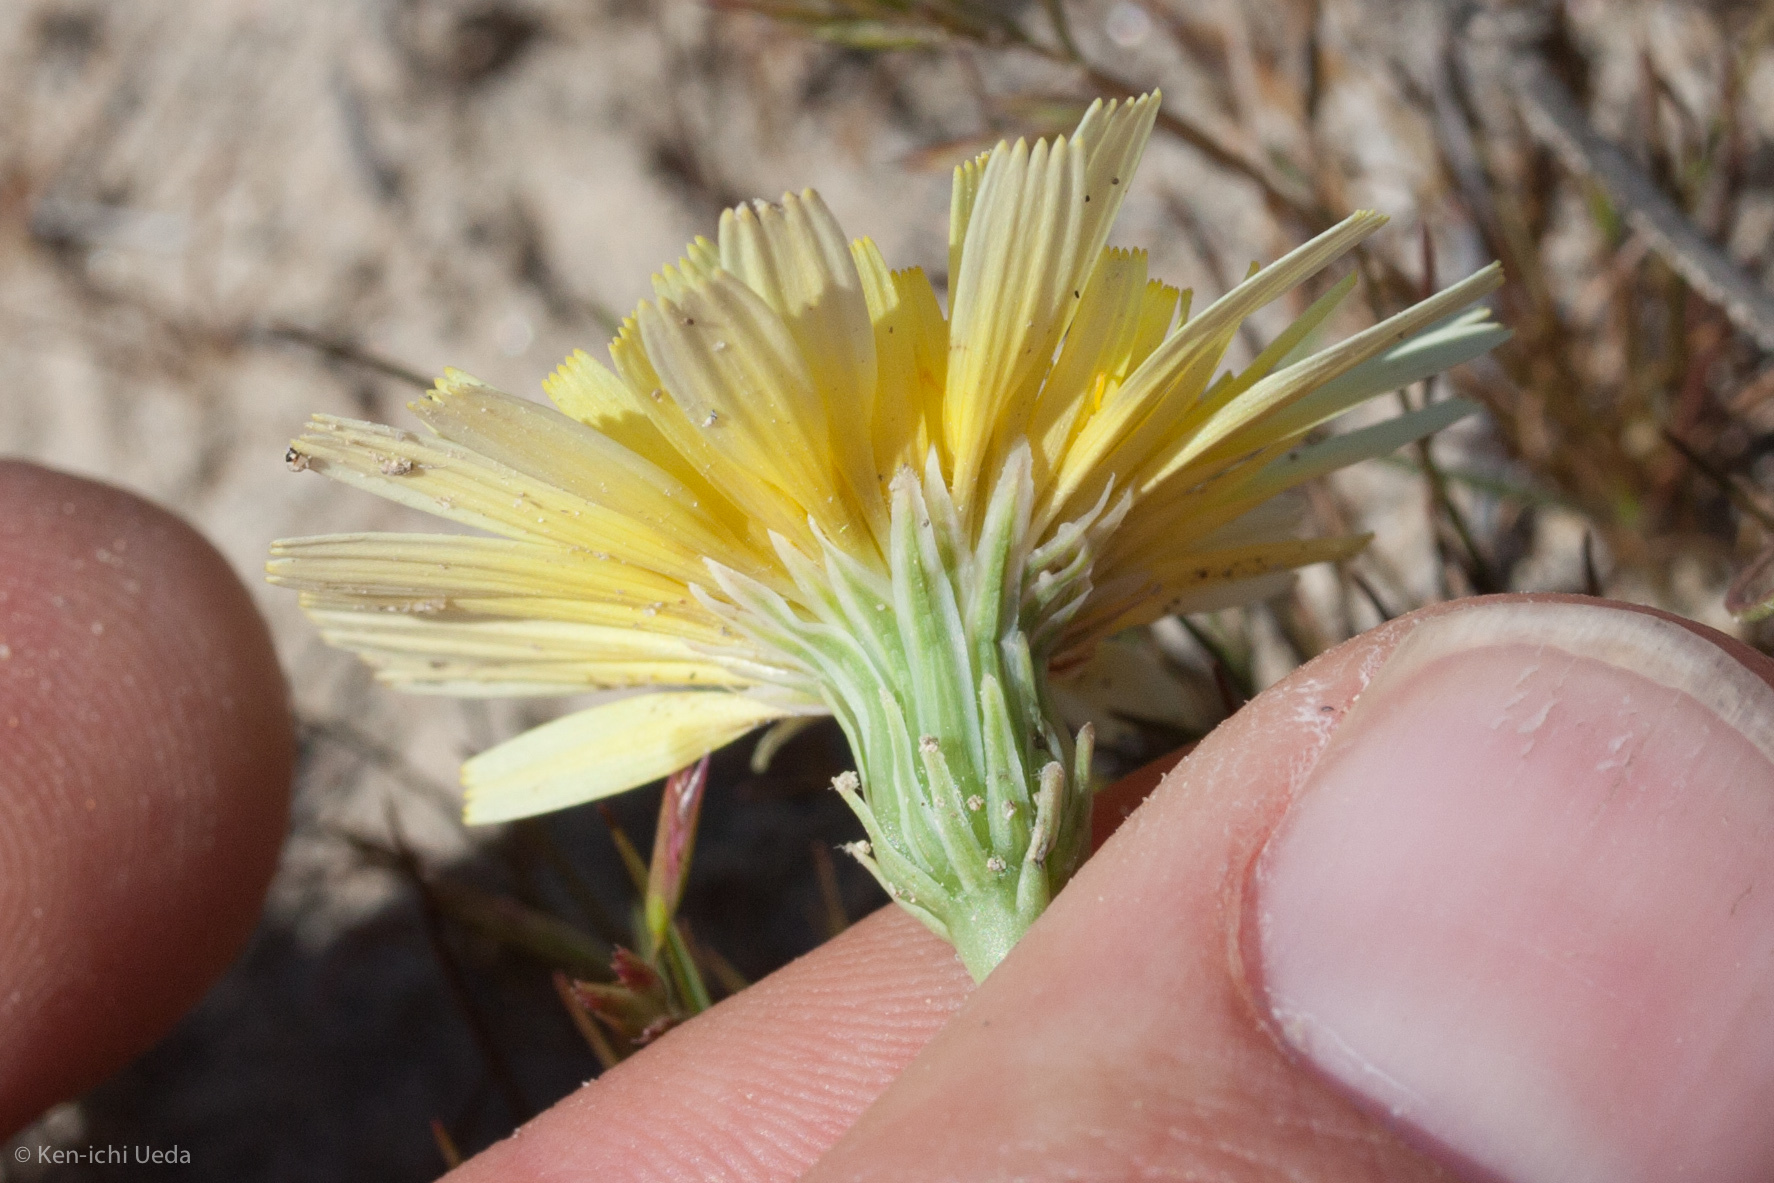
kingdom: Plantae
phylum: Tracheophyta
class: Magnoliopsida
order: Asterales
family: Asteraceae
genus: Malacothrix
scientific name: Malacothrix glabrata
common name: Smooth desert-dandelion
